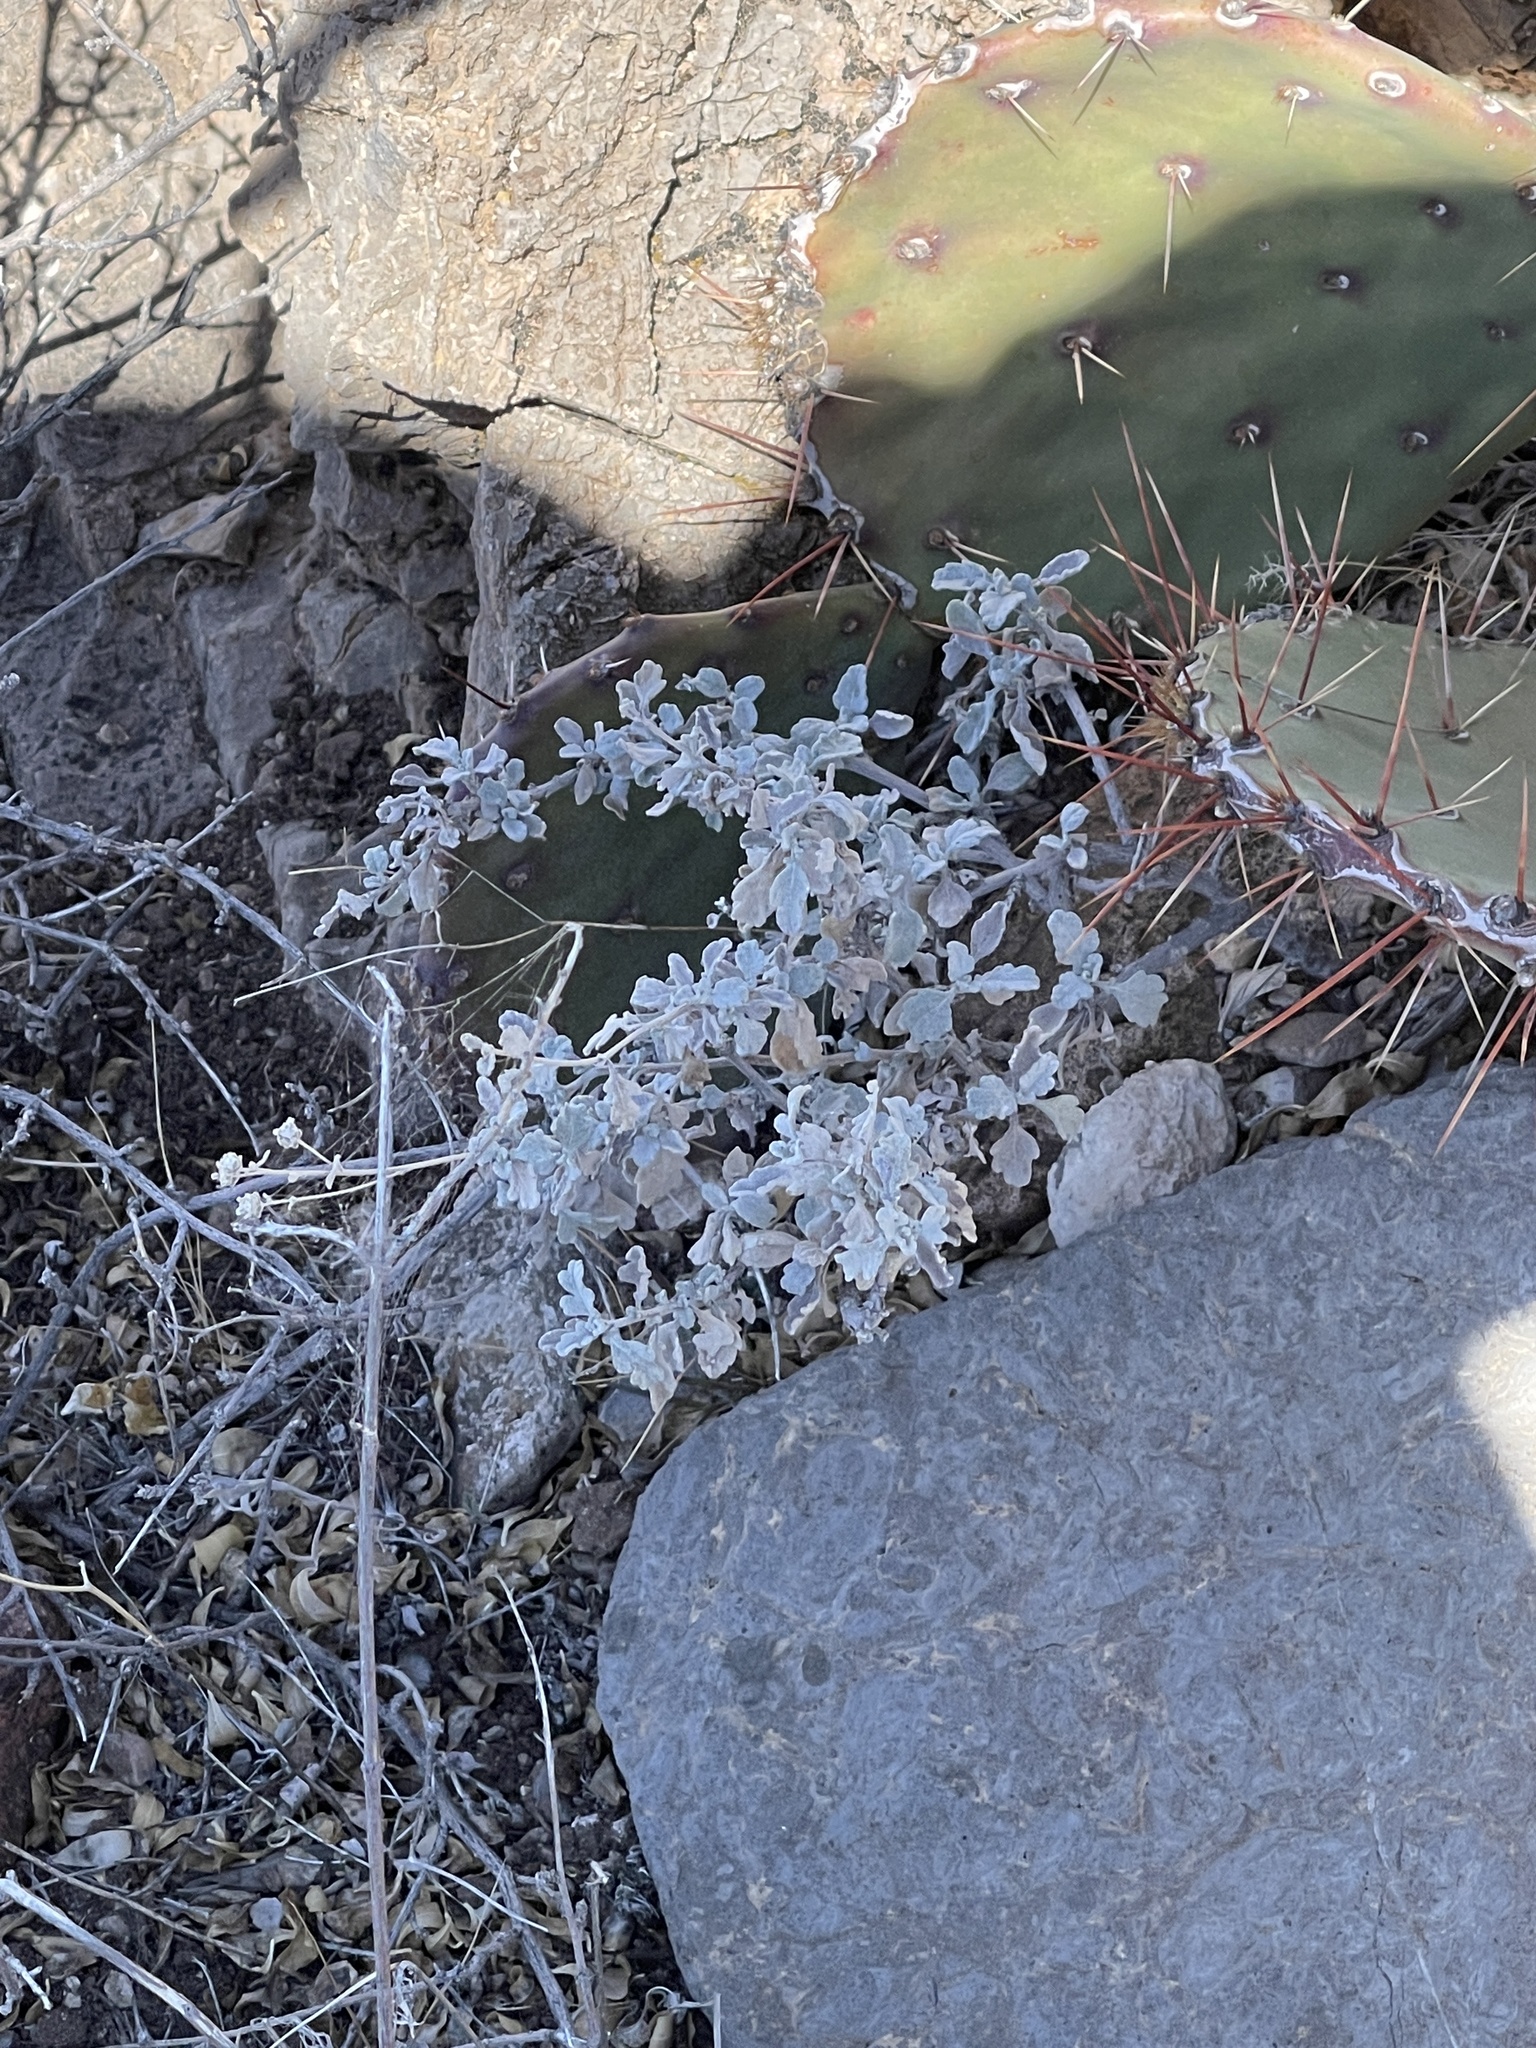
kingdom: Plantae
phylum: Tracheophyta
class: Magnoliopsida
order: Asterales
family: Asteraceae
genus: Parthenium
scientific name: Parthenium incanum
